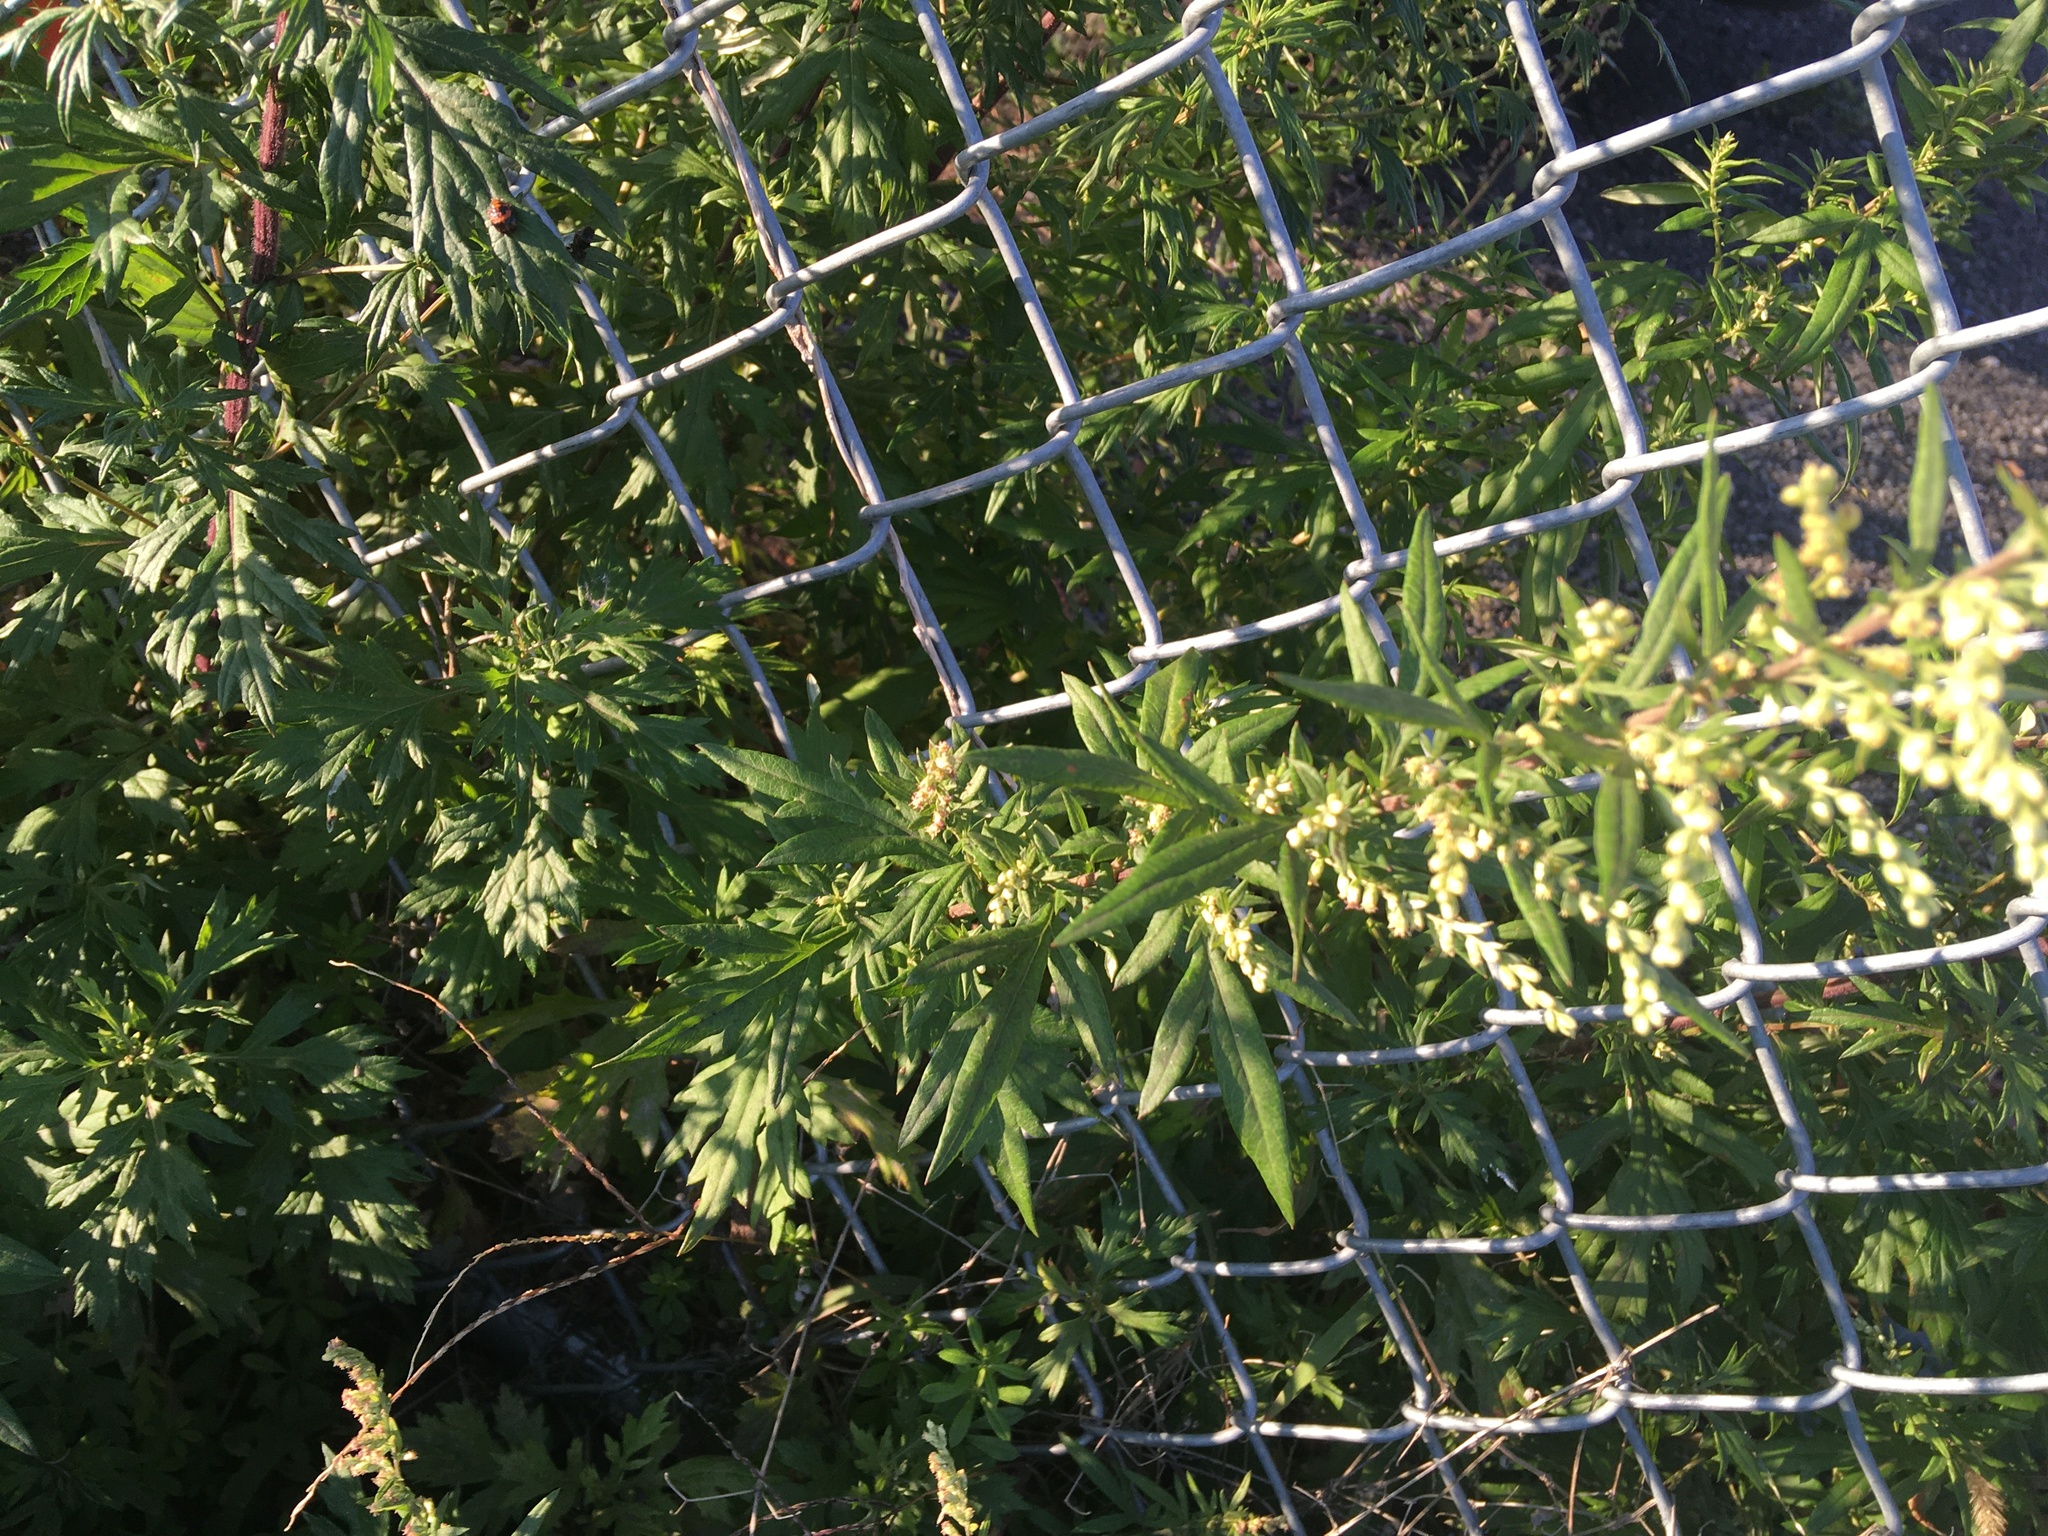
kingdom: Plantae
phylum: Tracheophyta
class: Magnoliopsida
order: Asterales
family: Asteraceae
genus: Artemisia
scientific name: Artemisia vulgaris
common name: Mugwort
